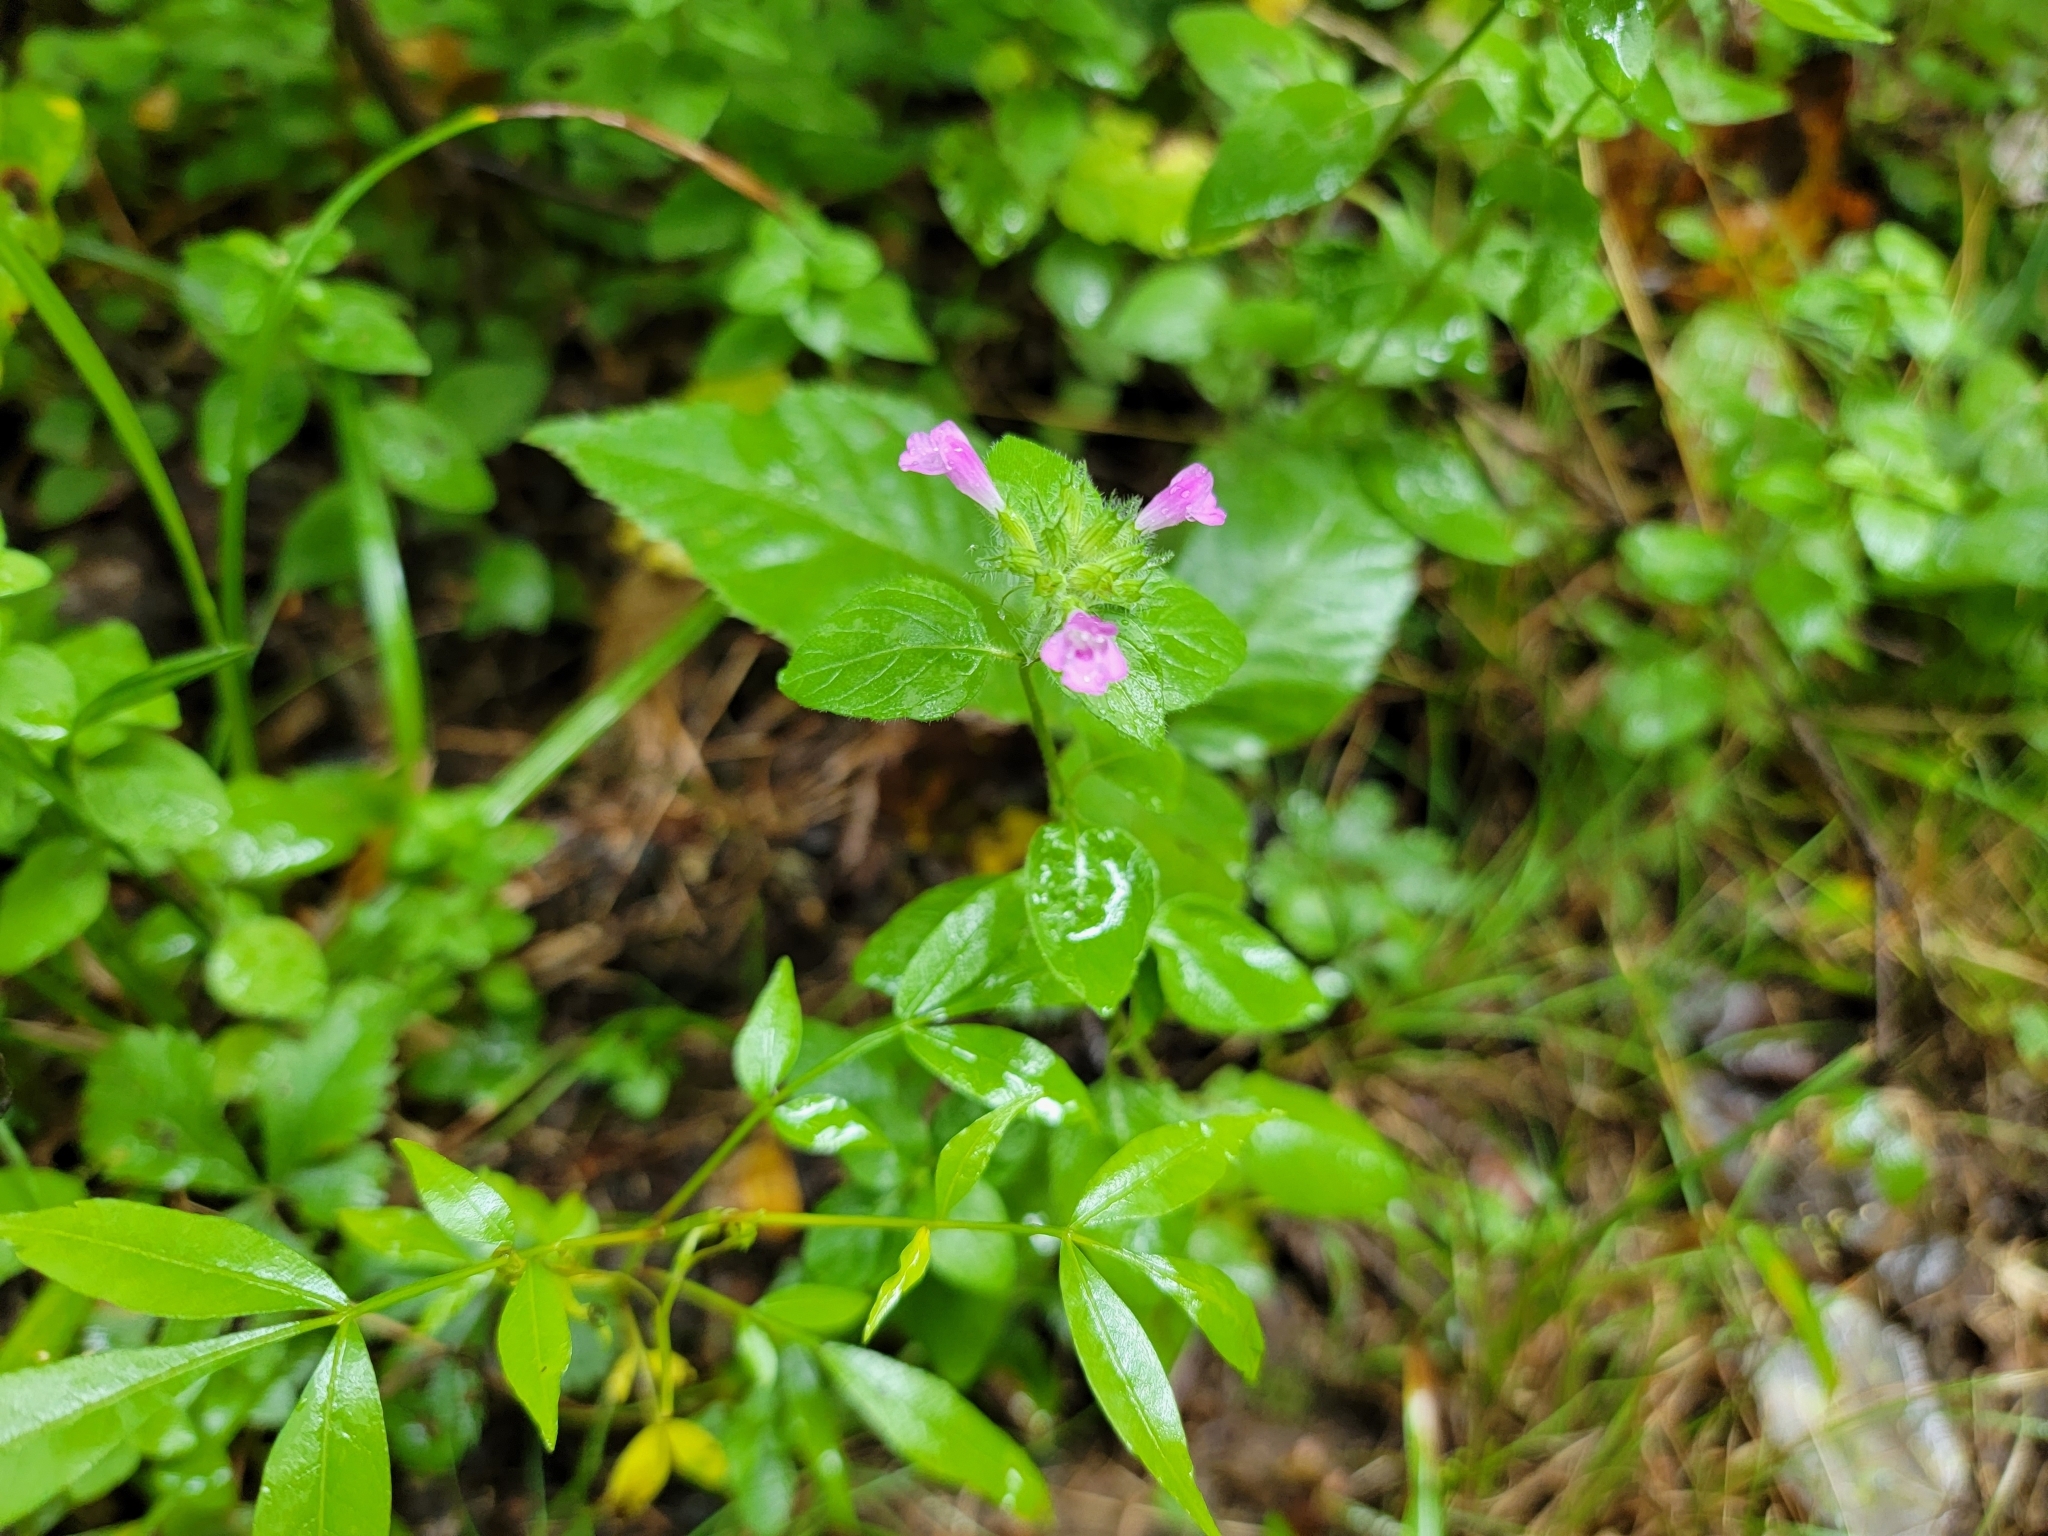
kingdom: Plantae
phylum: Tracheophyta
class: Magnoliopsida
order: Lamiales
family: Lamiaceae
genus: Clinopodium
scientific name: Clinopodium vulgare
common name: Wild basil
